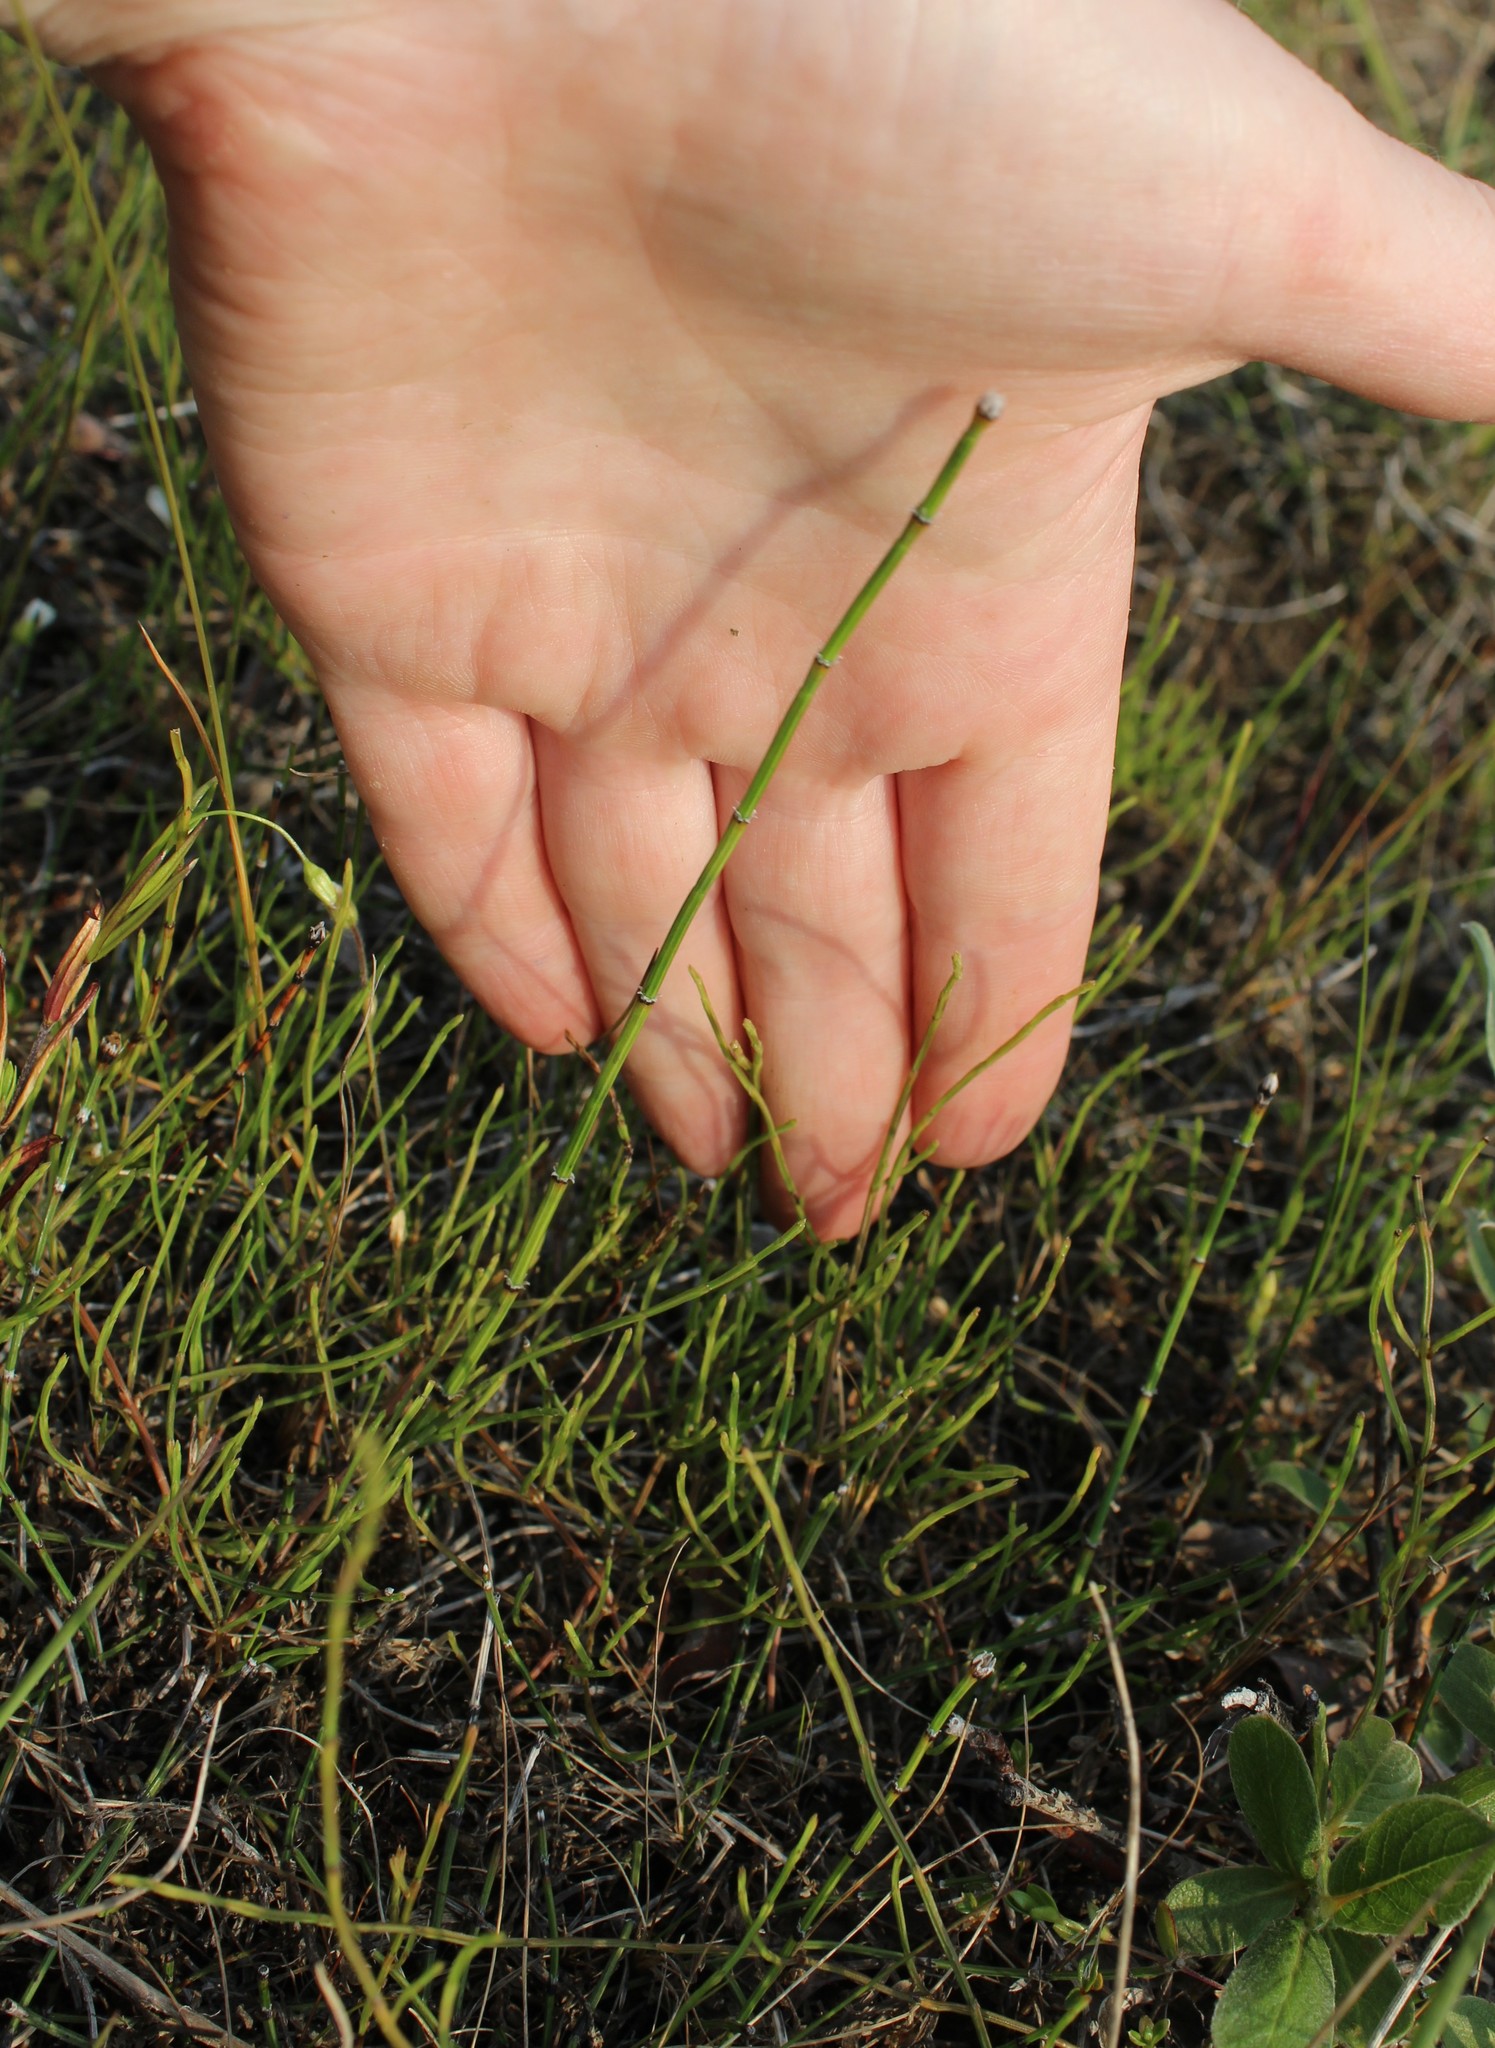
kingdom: Plantae
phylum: Tracheophyta
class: Polypodiopsida
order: Equisetales
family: Equisetaceae
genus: Equisetum
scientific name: Equisetum scirpoides
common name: Delicate horsetail
